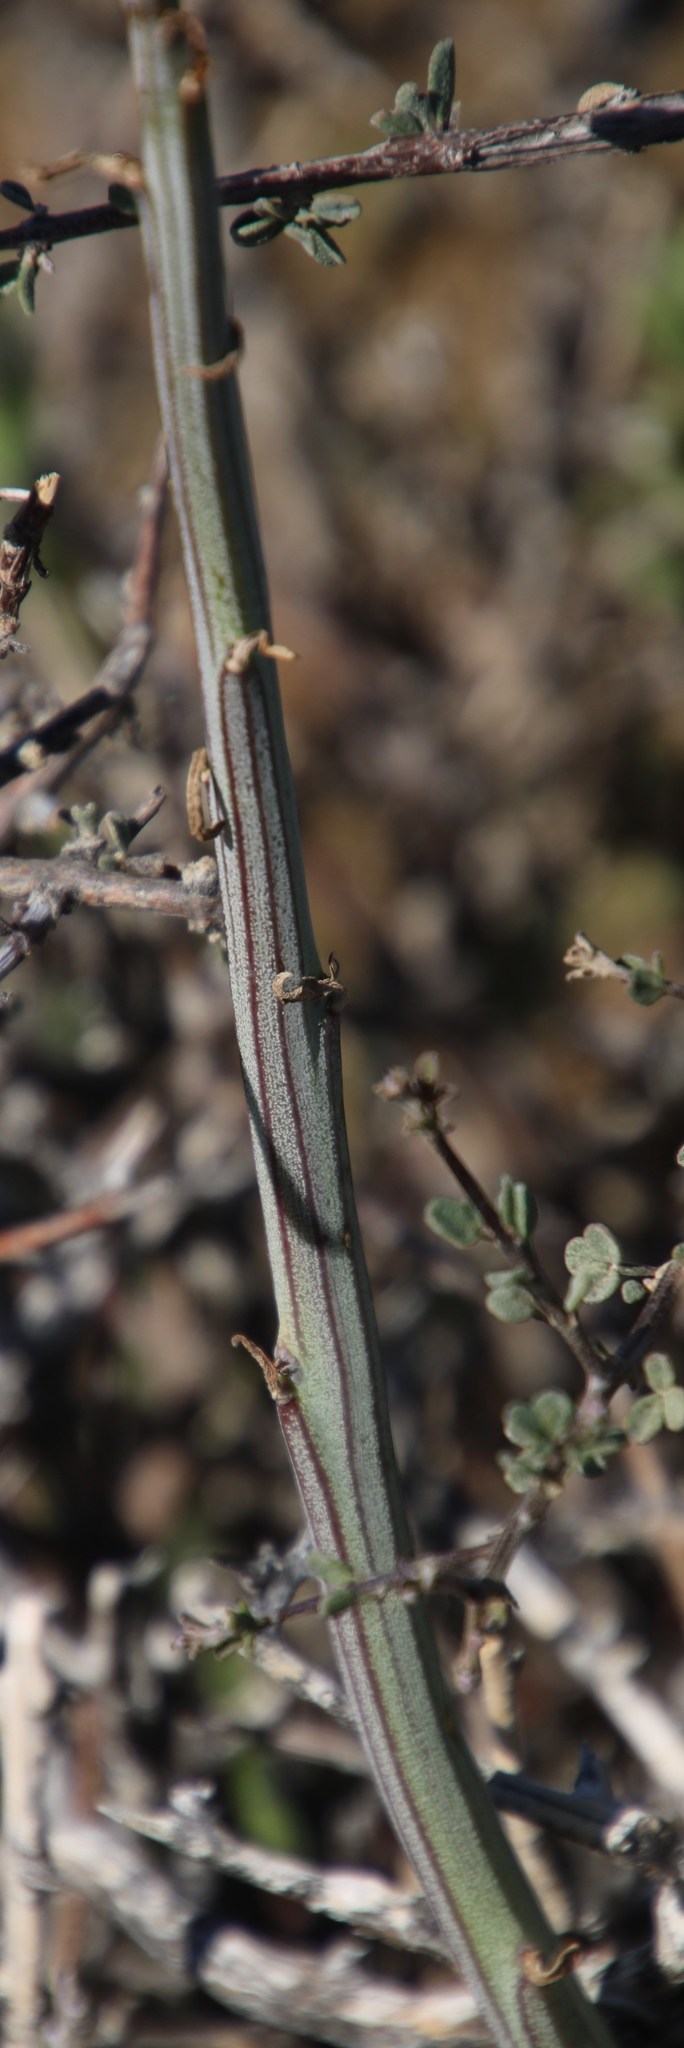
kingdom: Plantae
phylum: Tracheophyta
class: Magnoliopsida
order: Asterales
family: Asteraceae
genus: Curio
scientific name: Curio avasimontanus
